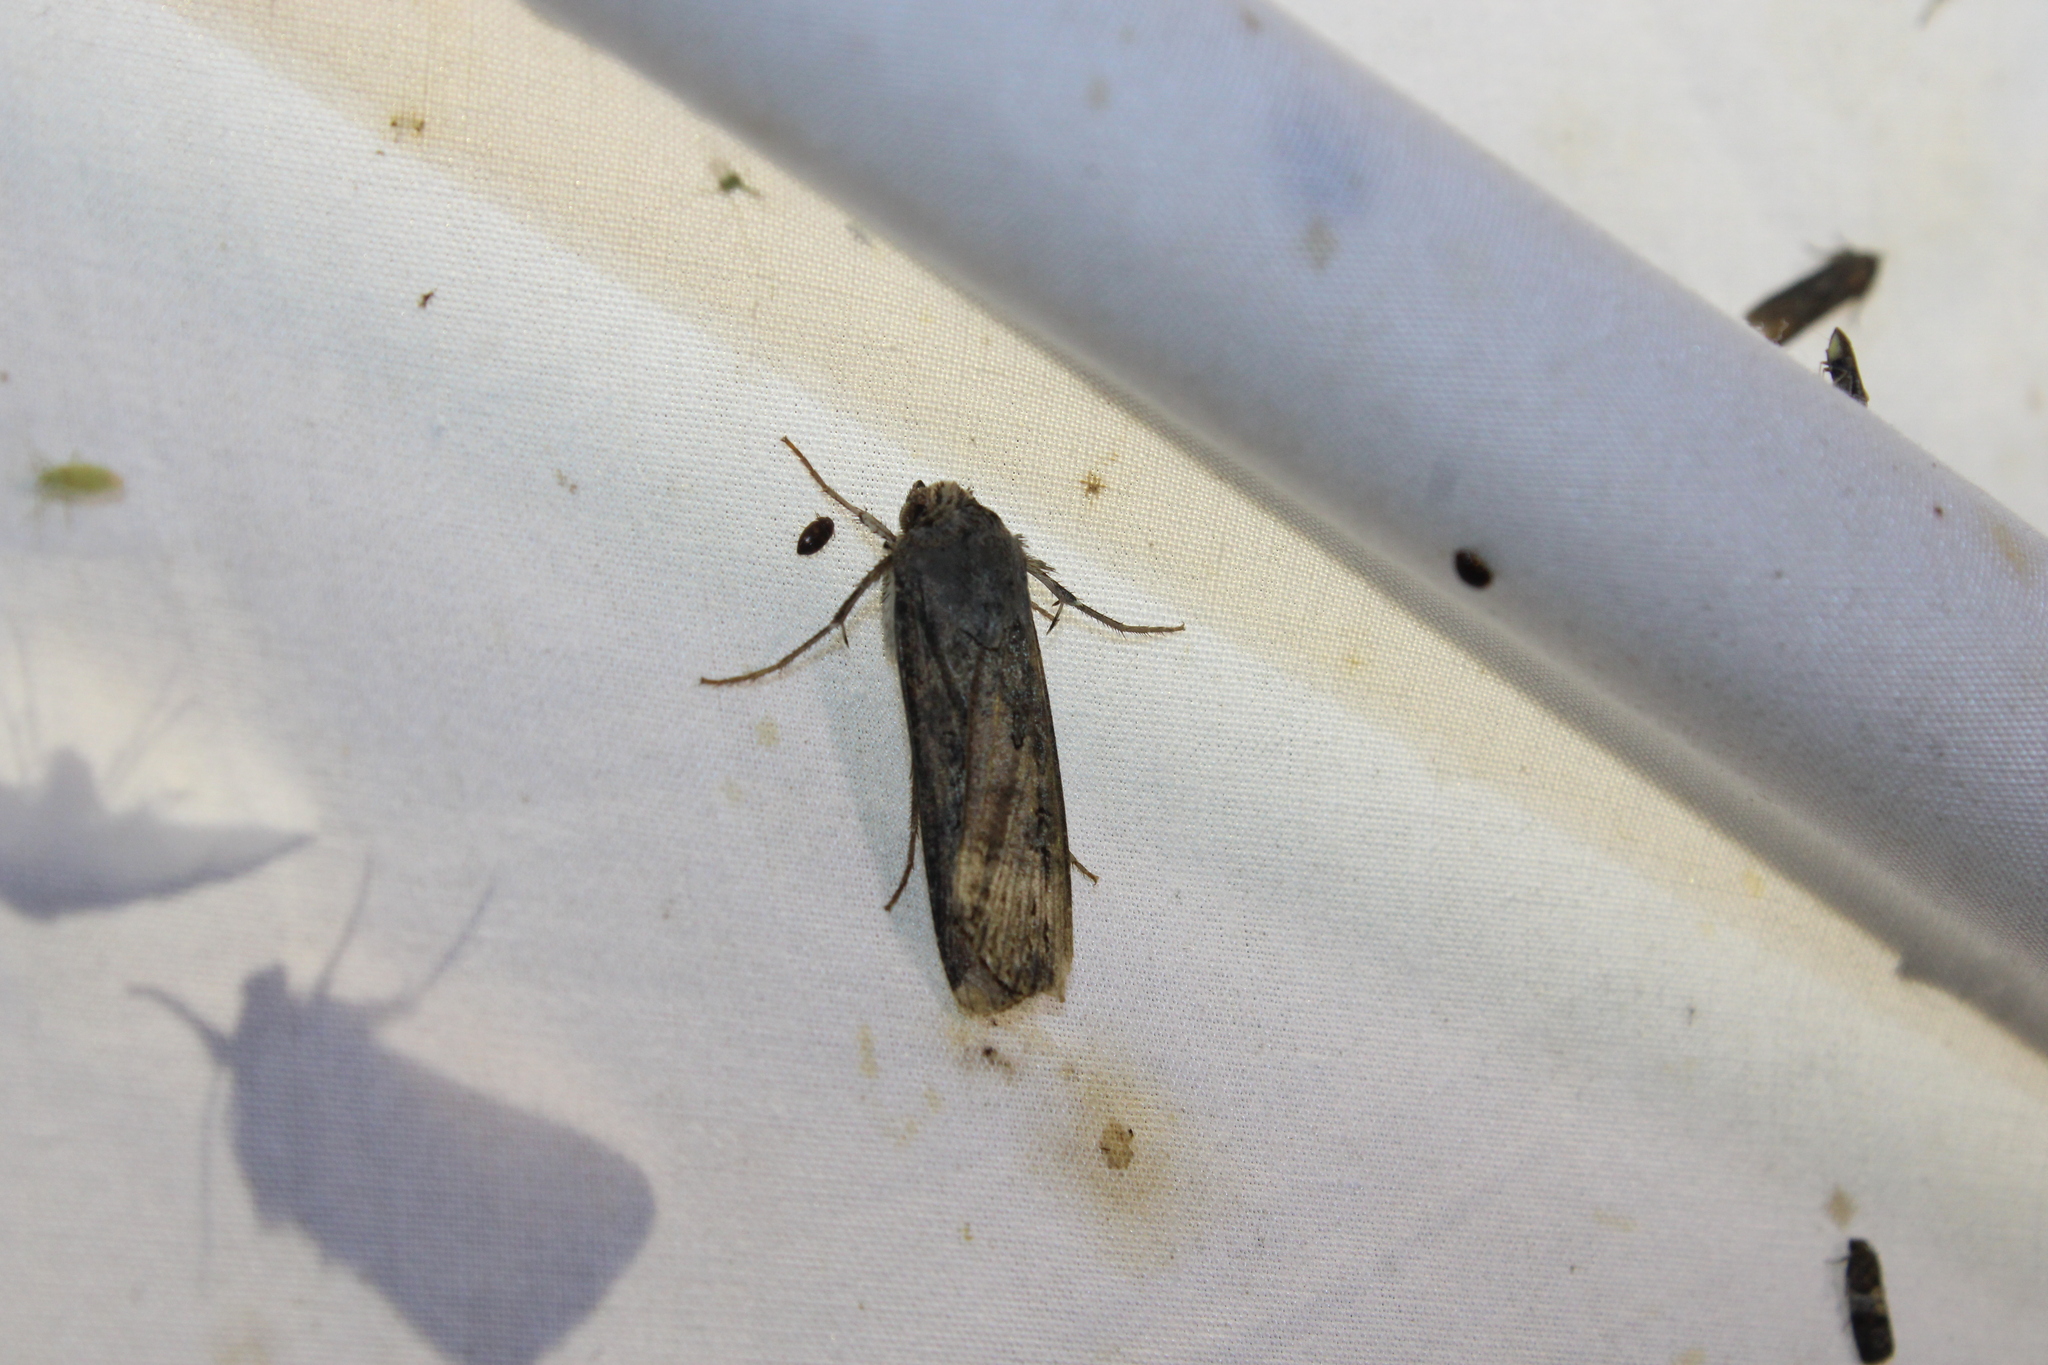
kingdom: Animalia
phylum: Arthropoda
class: Insecta
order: Lepidoptera
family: Noctuidae
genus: Agrotis
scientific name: Agrotis ipsilon
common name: Dark sword-grass
